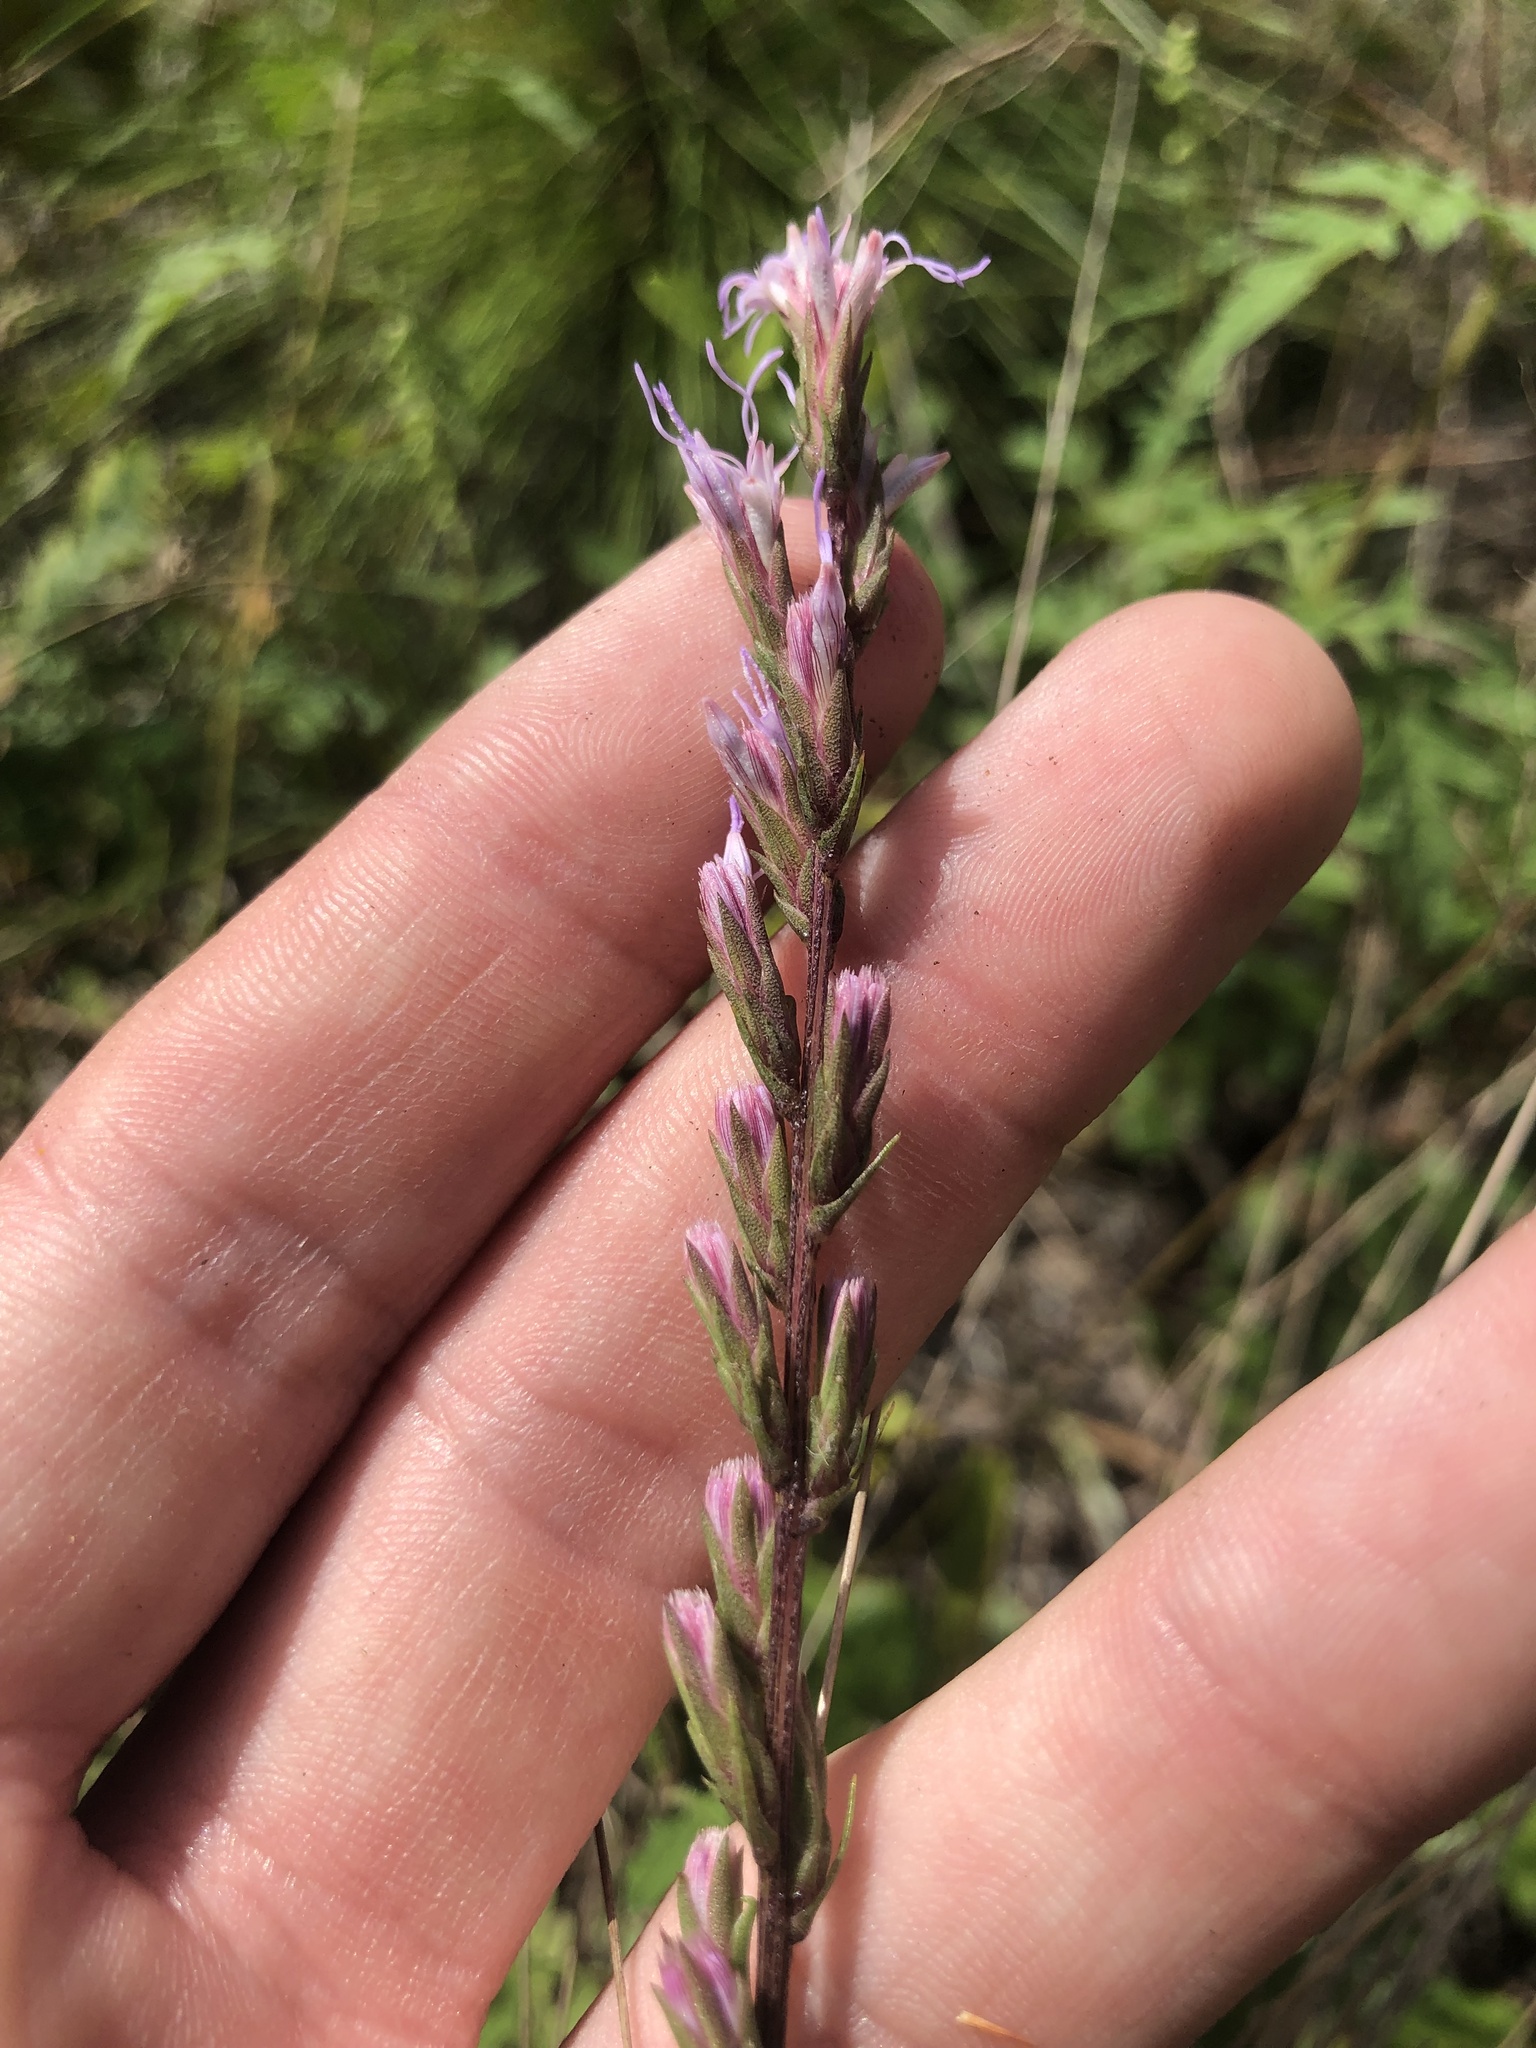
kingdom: Plantae
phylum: Tracheophyta
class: Magnoliopsida
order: Asterales
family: Asteraceae
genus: Liatris
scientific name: Liatris cokeri
